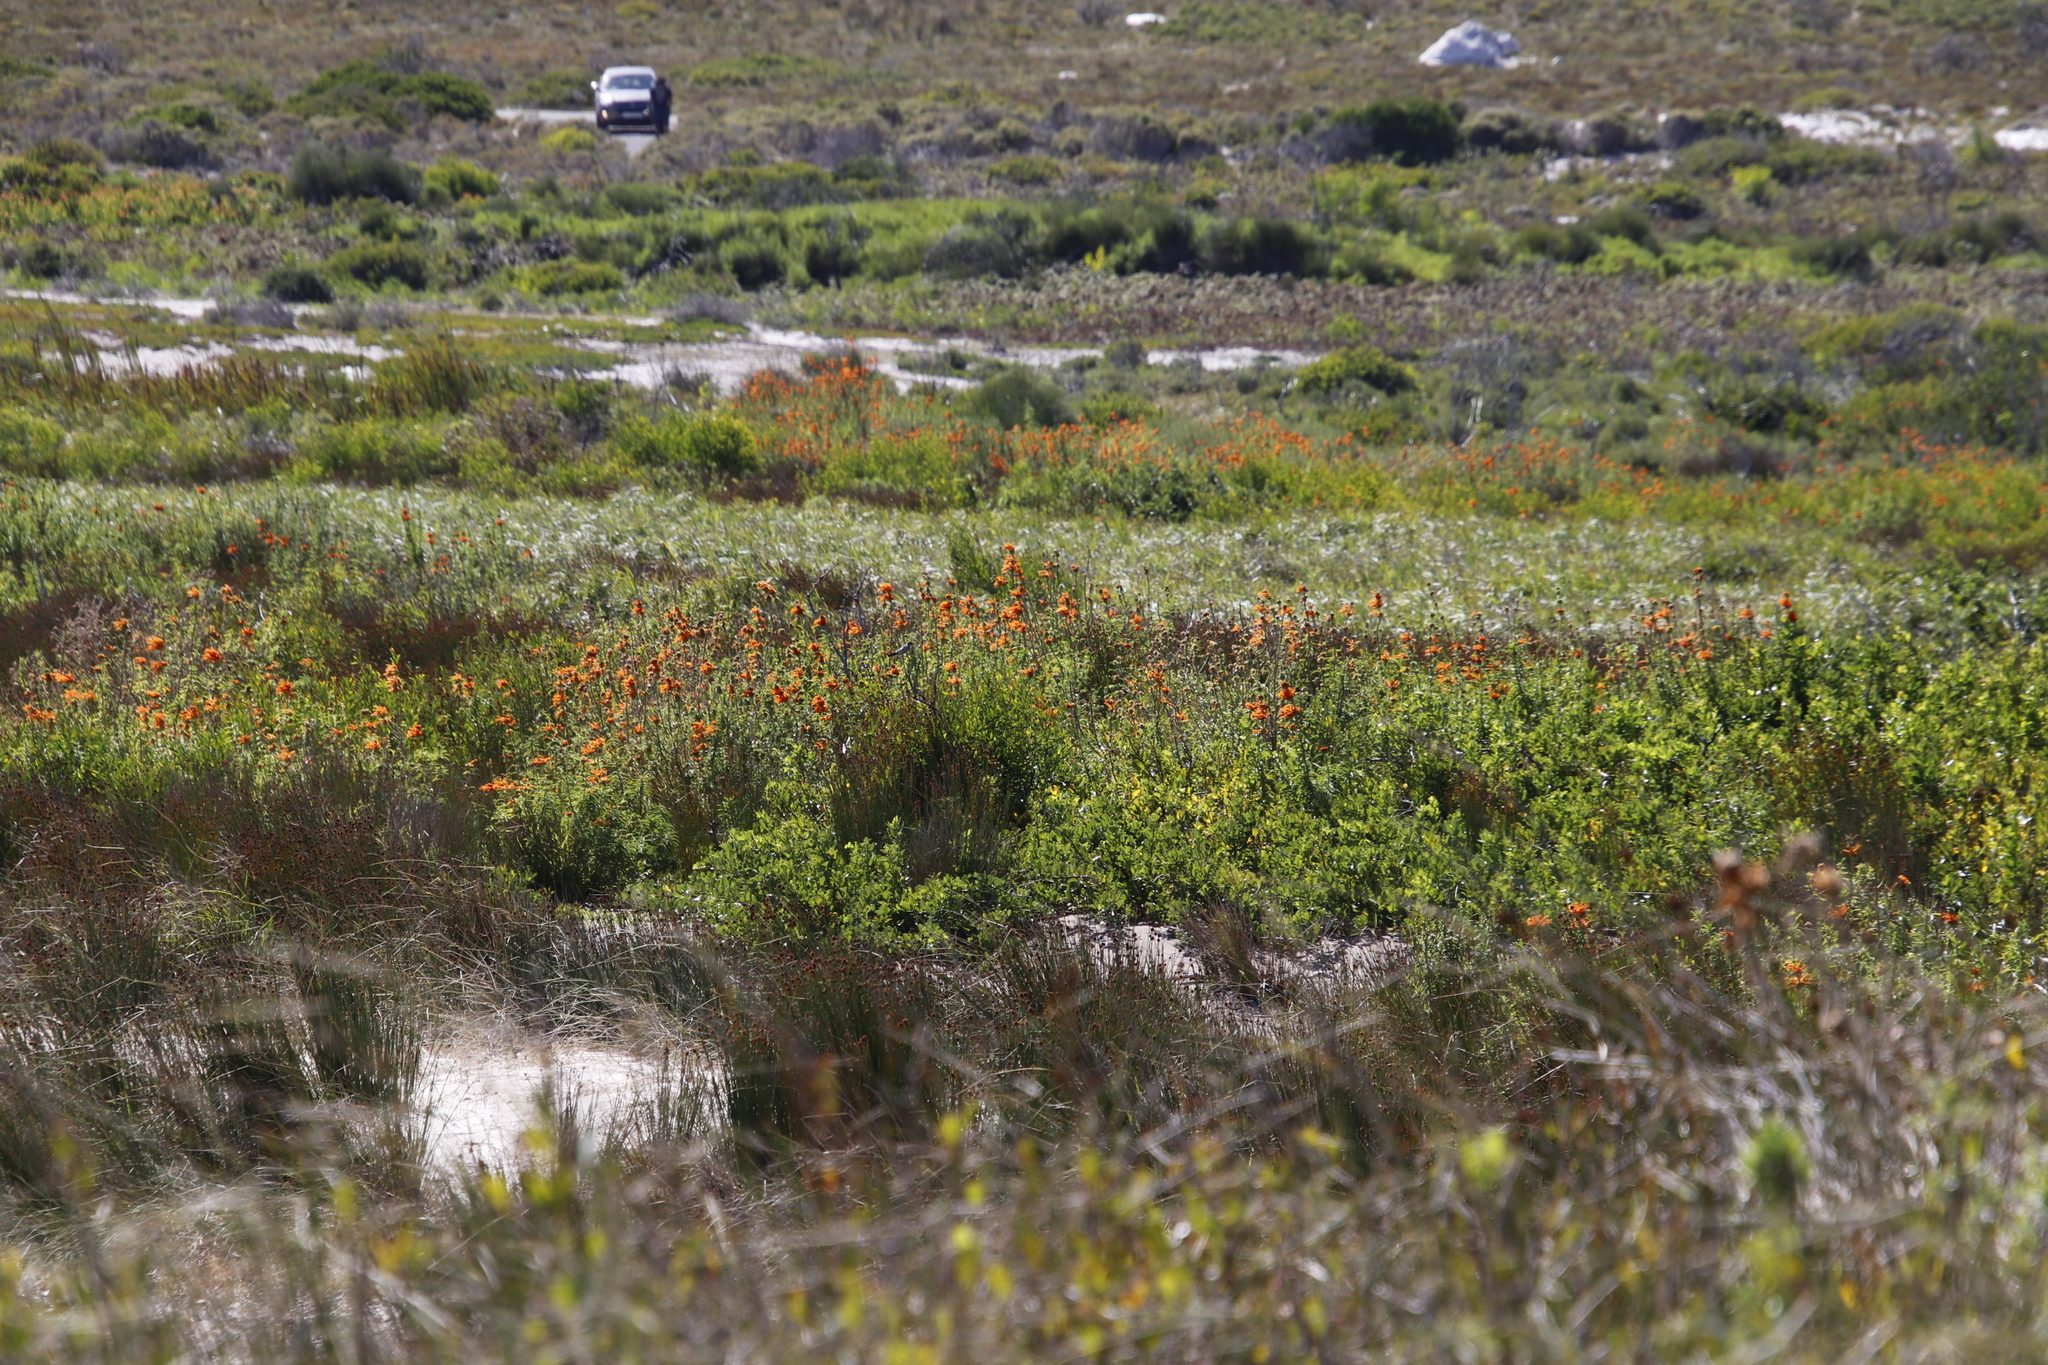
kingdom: Plantae
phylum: Tracheophyta
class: Magnoliopsida
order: Lamiales
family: Lamiaceae
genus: Leonotis
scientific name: Leonotis leonurus
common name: Lion's ear
